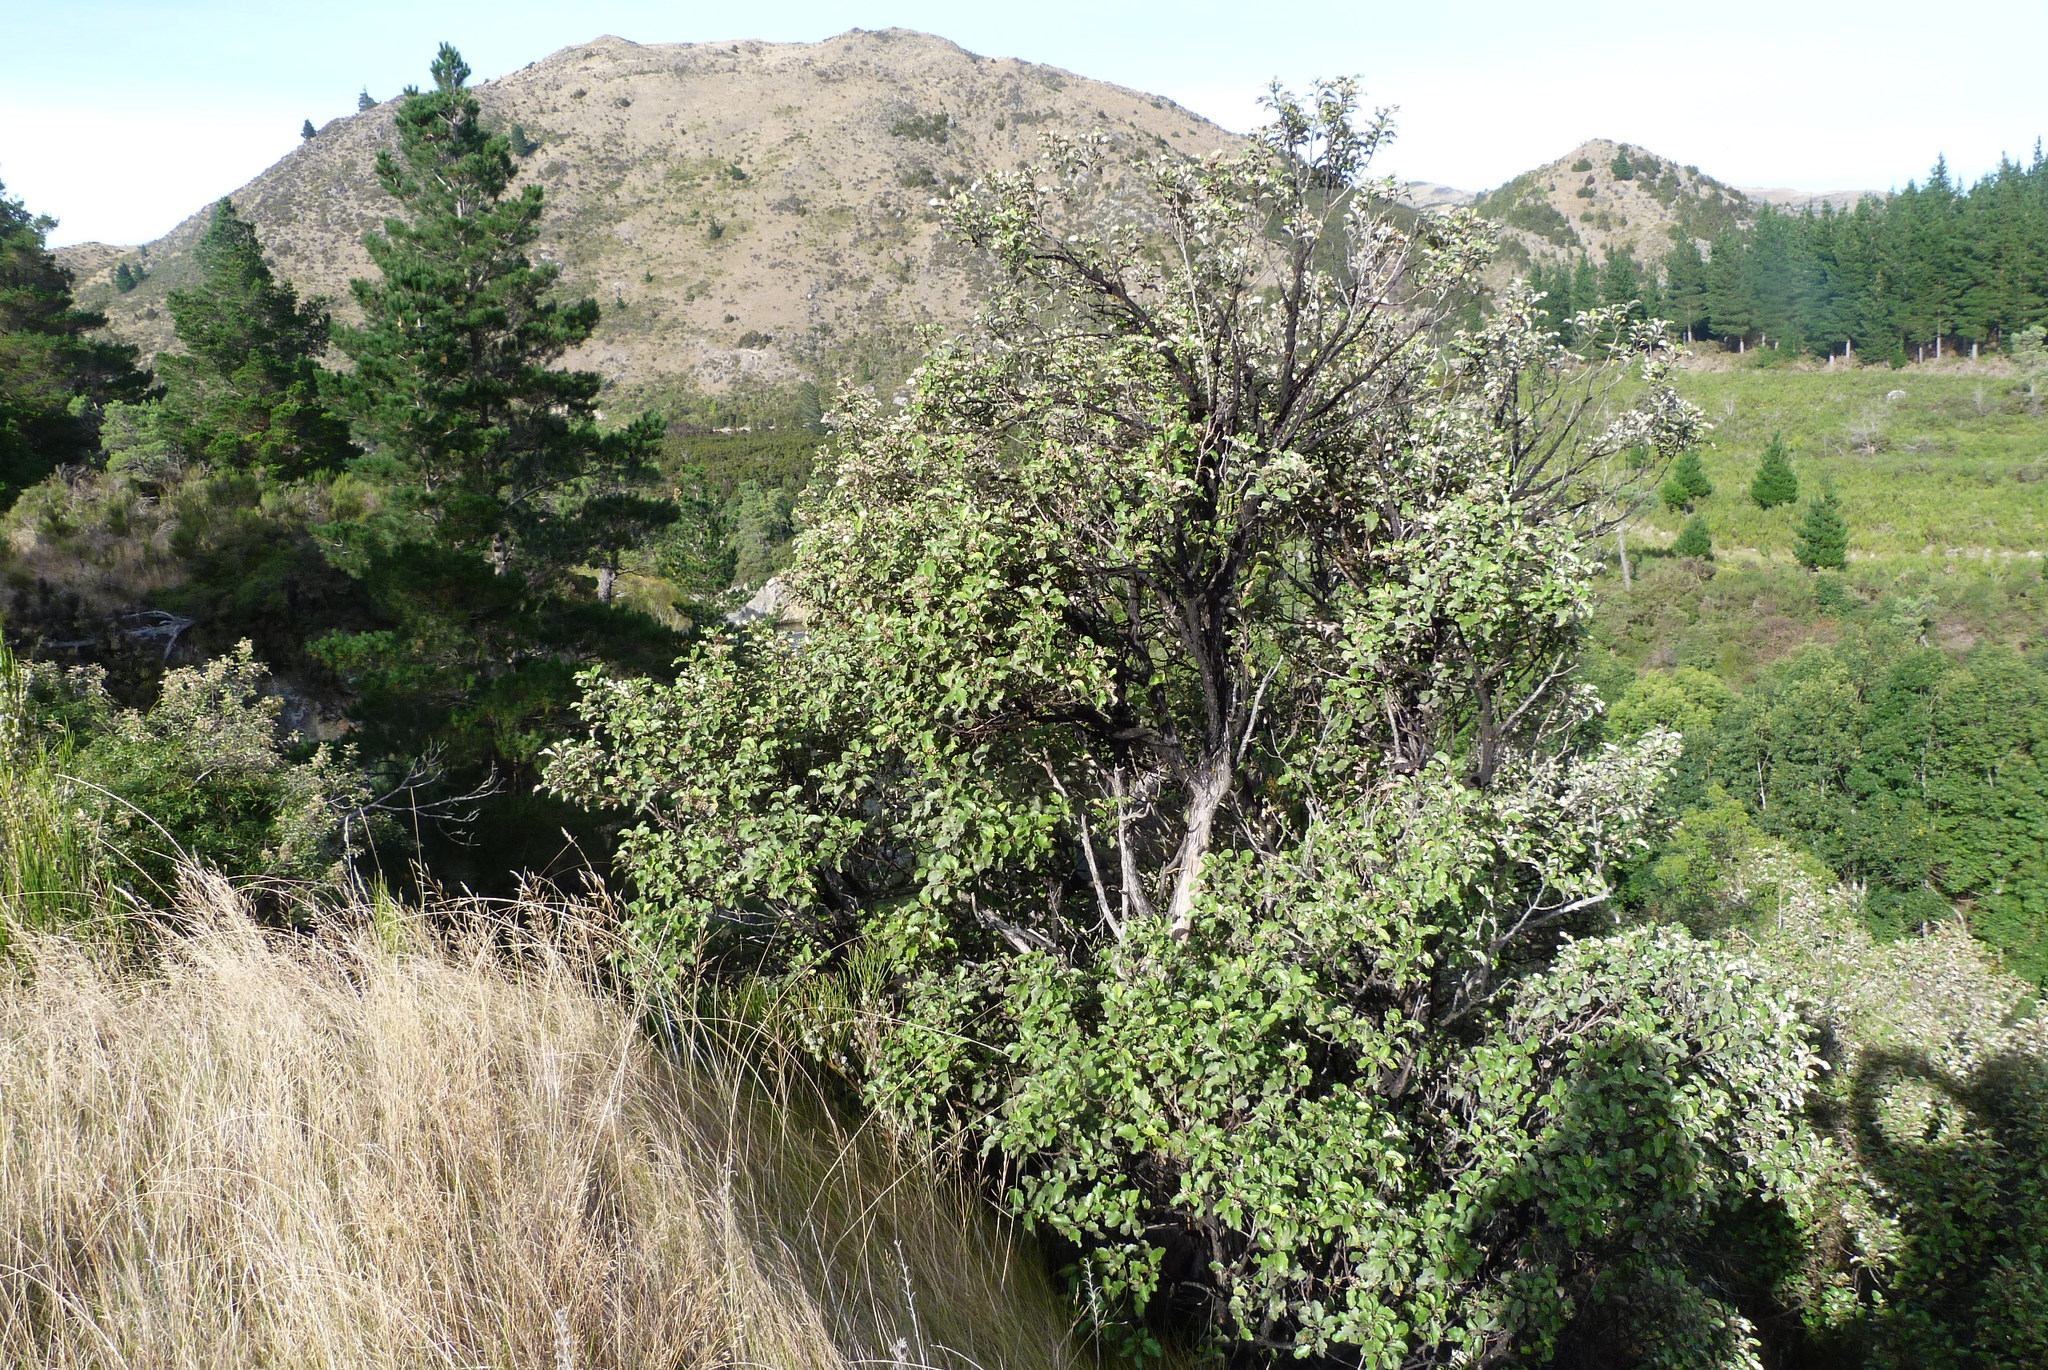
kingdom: Plantae
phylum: Tracheophyta
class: Magnoliopsida
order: Asterales
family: Asteraceae
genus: Olearia
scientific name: Olearia paniculata
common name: Akiraho
